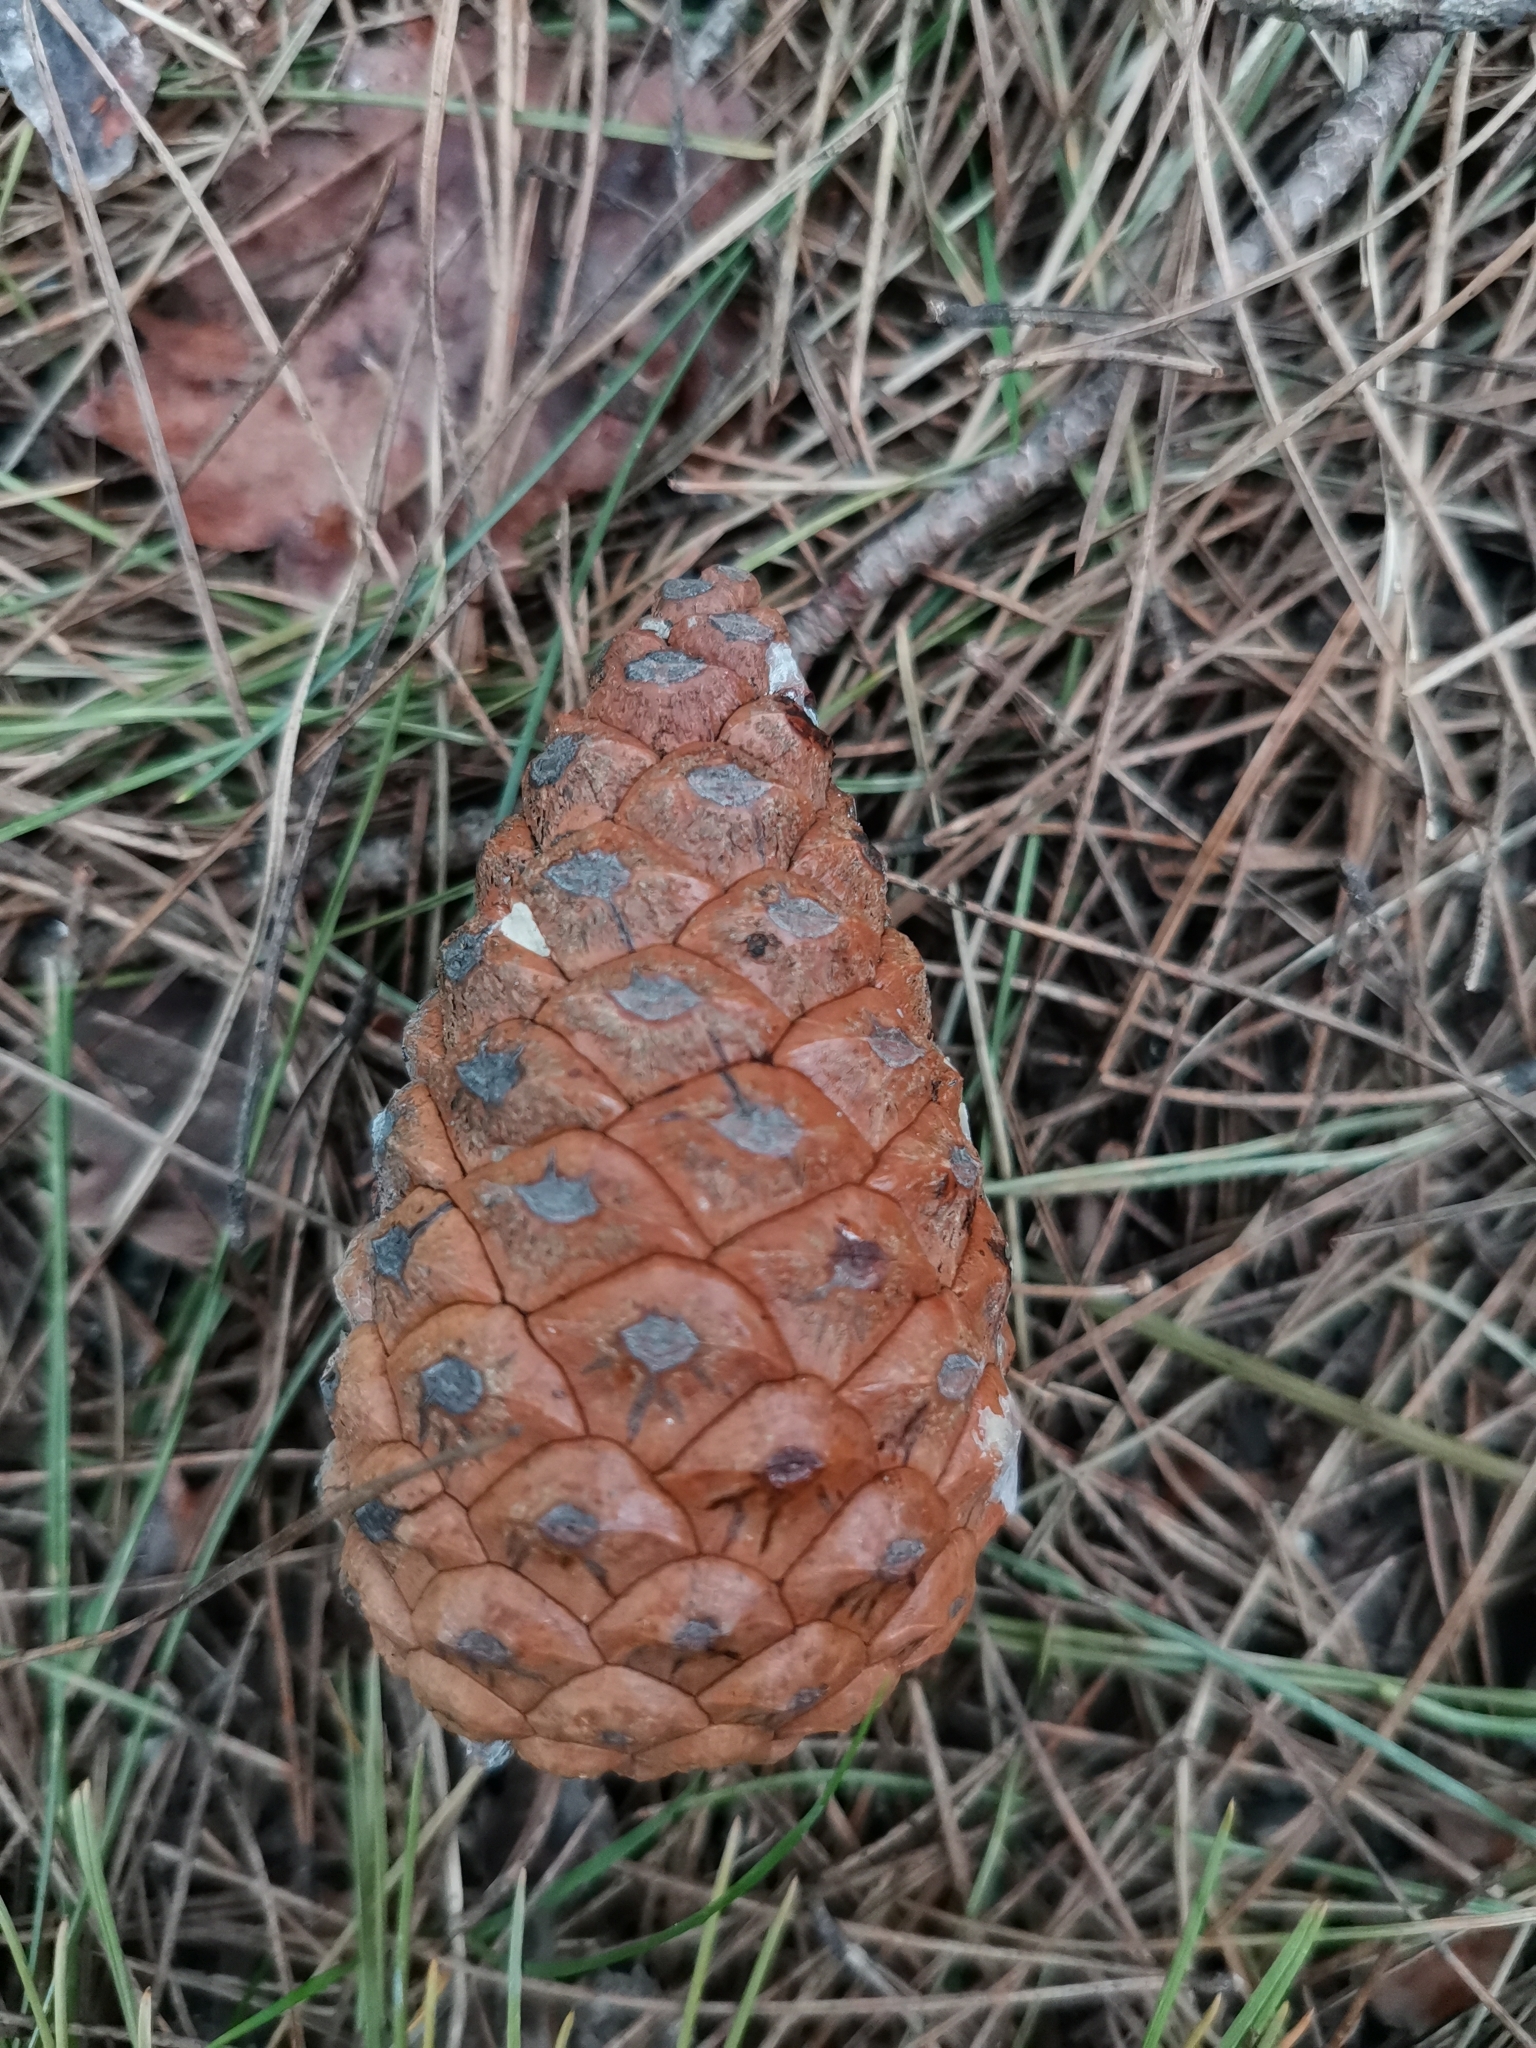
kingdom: Plantae
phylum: Tracheophyta
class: Pinopsida
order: Pinales
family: Pinaceae
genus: Pinus
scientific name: Pinus brutia
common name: Turkish pine
